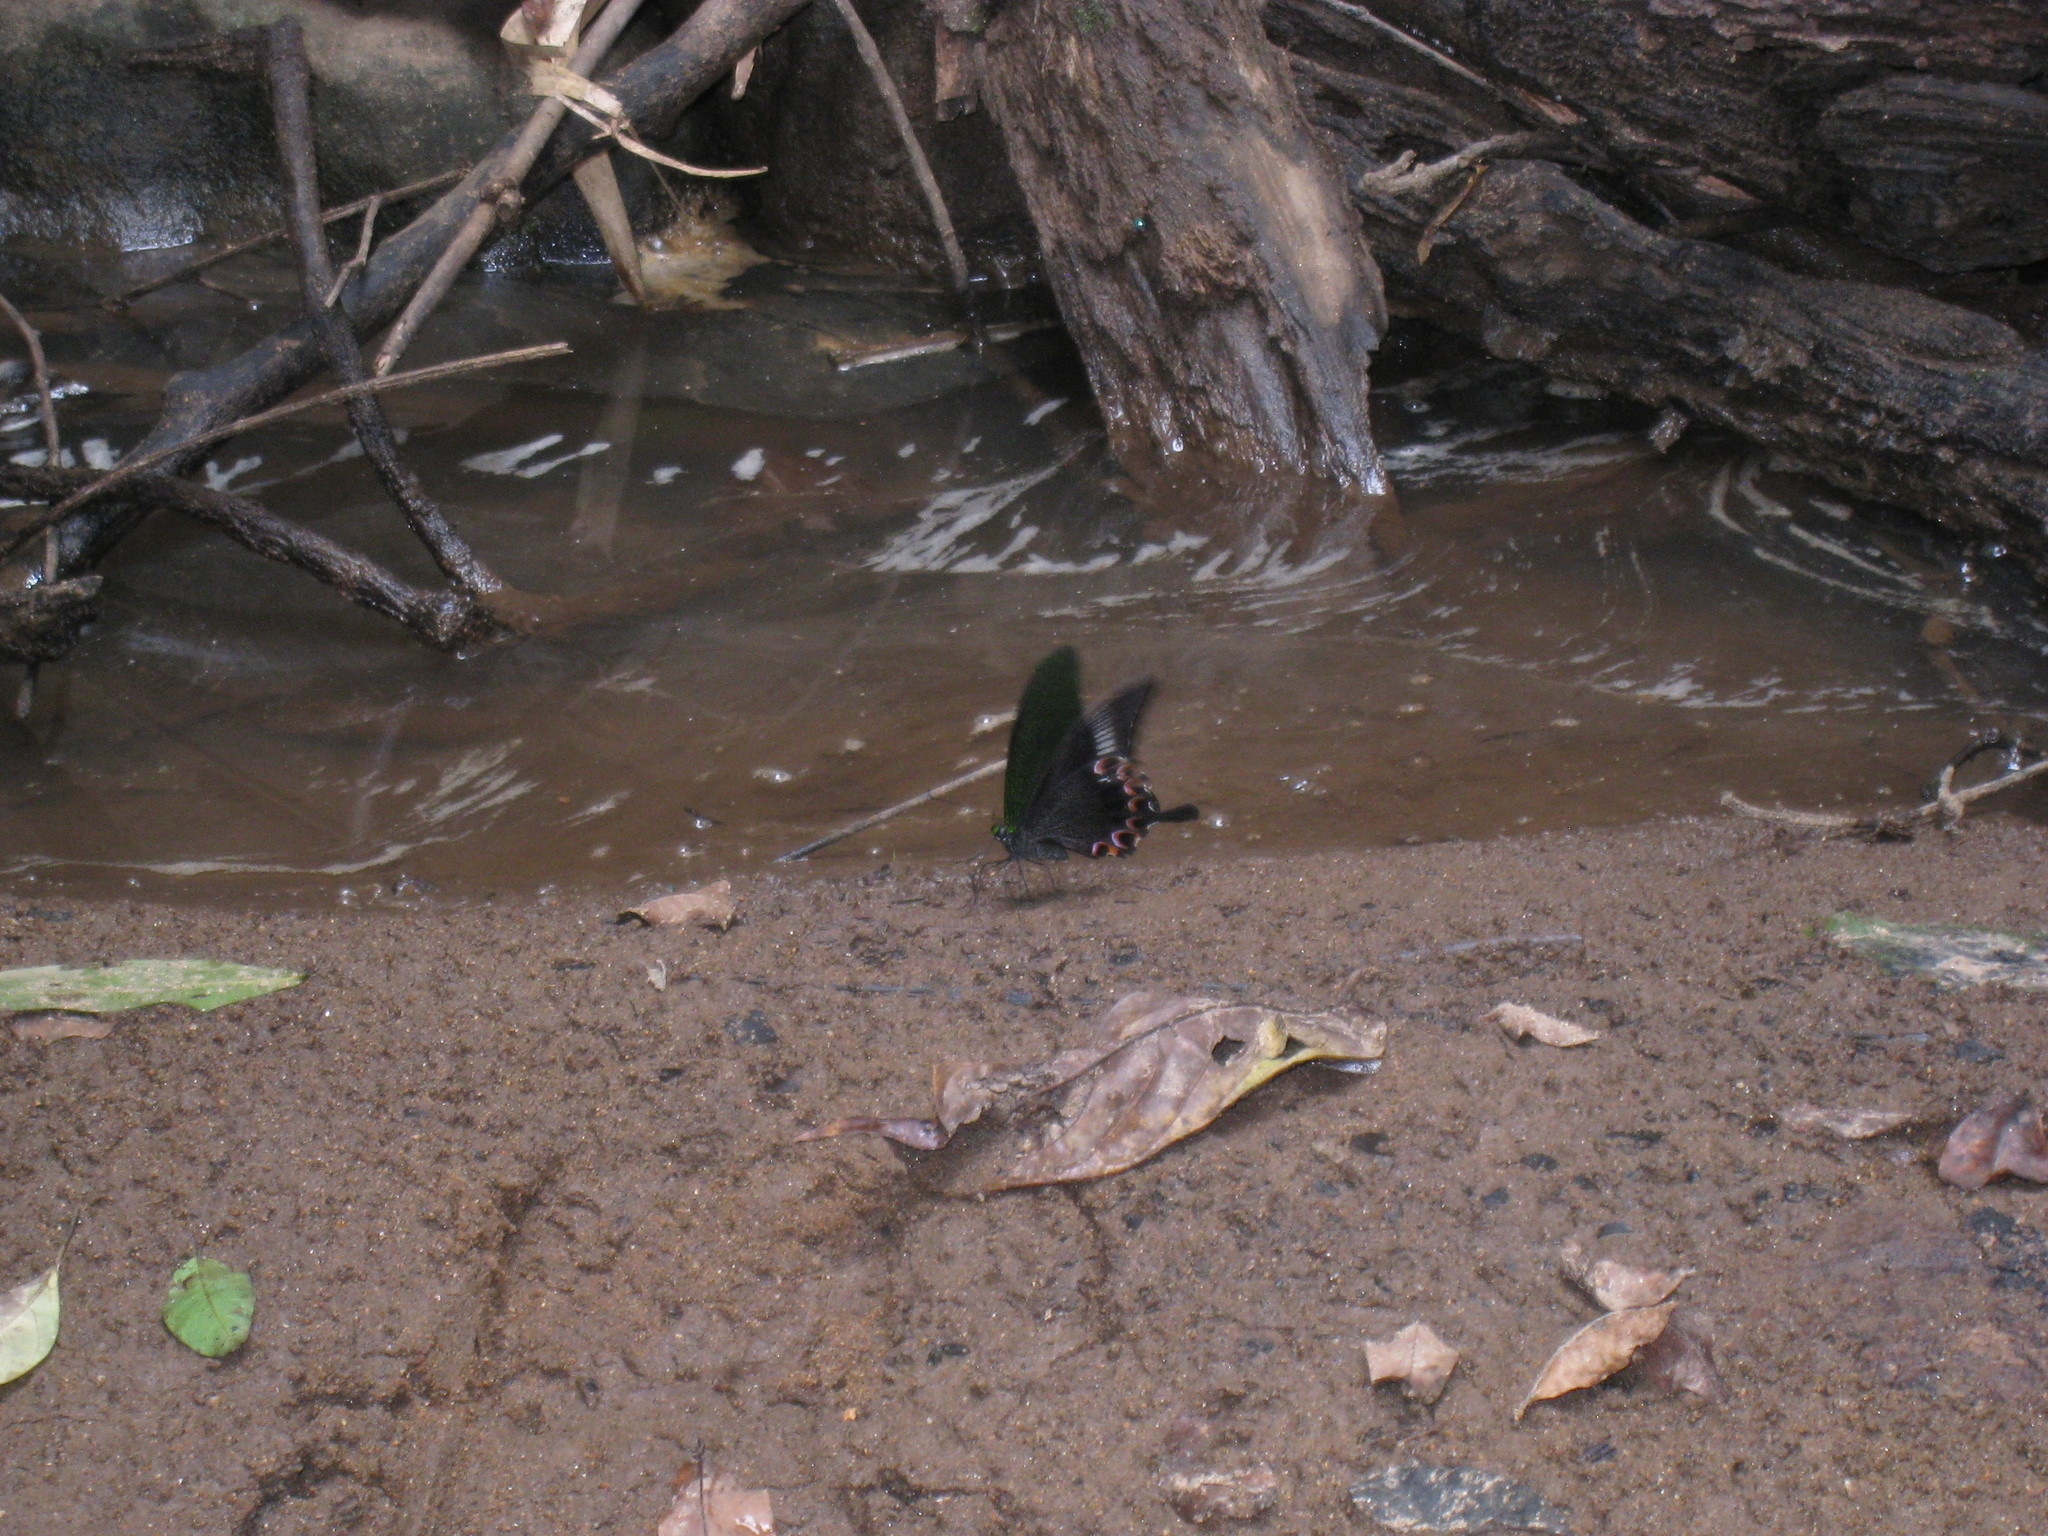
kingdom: Animalia
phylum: Arthropoda
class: Insecta
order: Lepidoptera
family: Papilionidae
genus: Papilio
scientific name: Papilio paris
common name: Paris peacock
